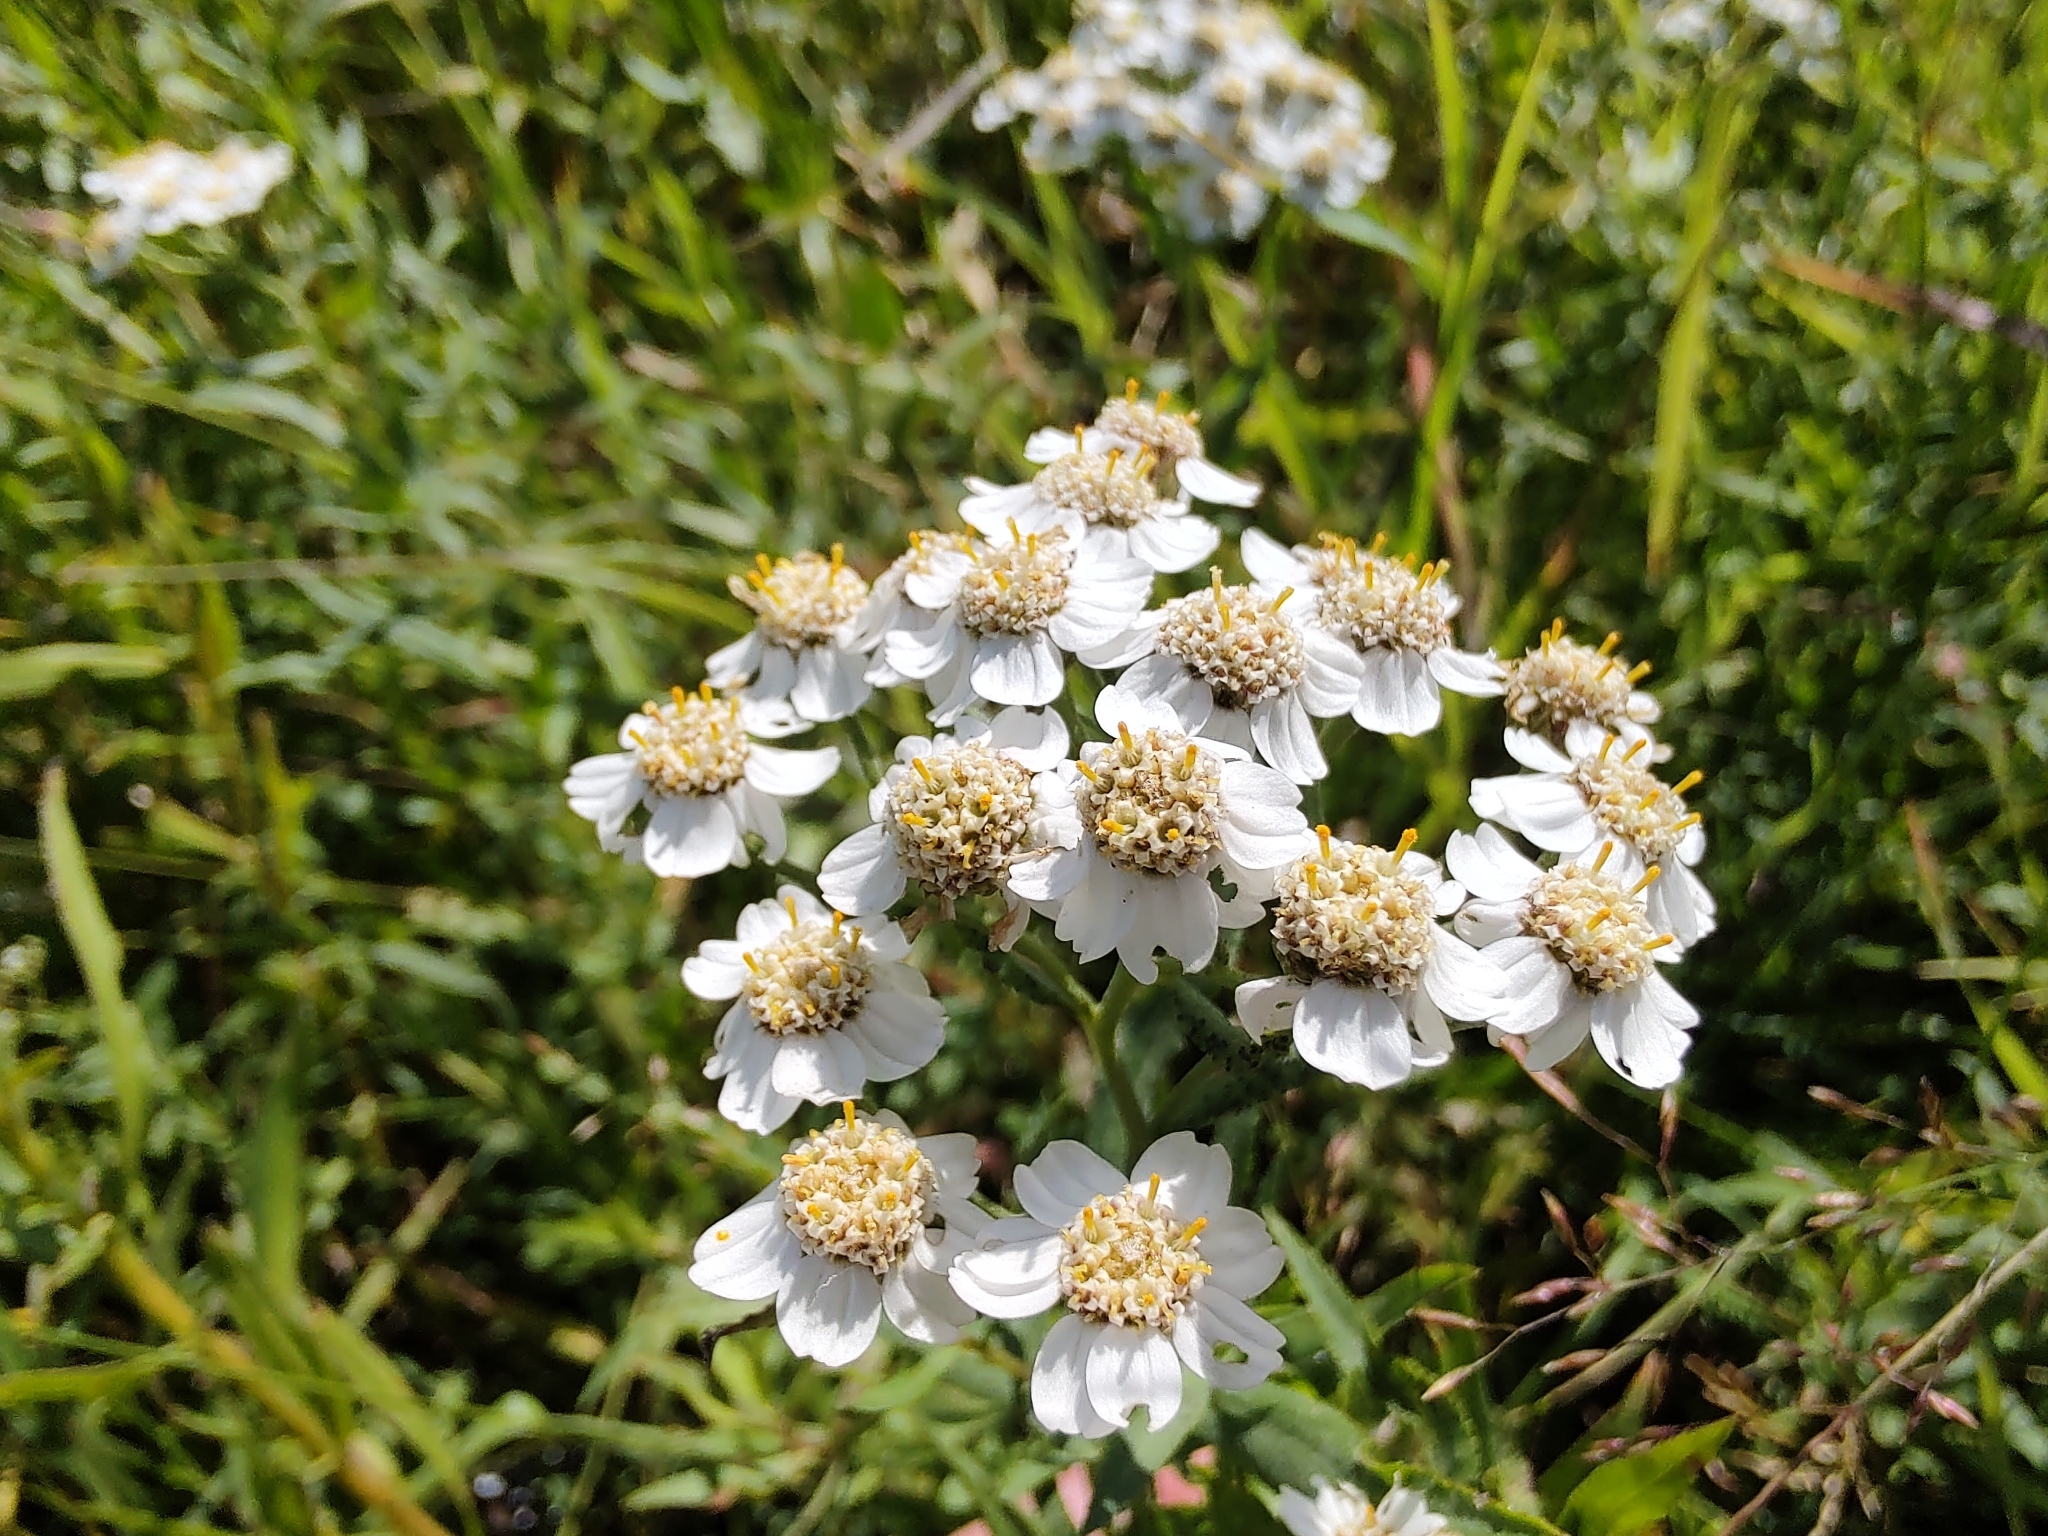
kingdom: Plantae
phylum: Tracheophyta
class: Magnoliopsida
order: Asterales
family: Asteraceae
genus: Achillea
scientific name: Achillea salicifolia
